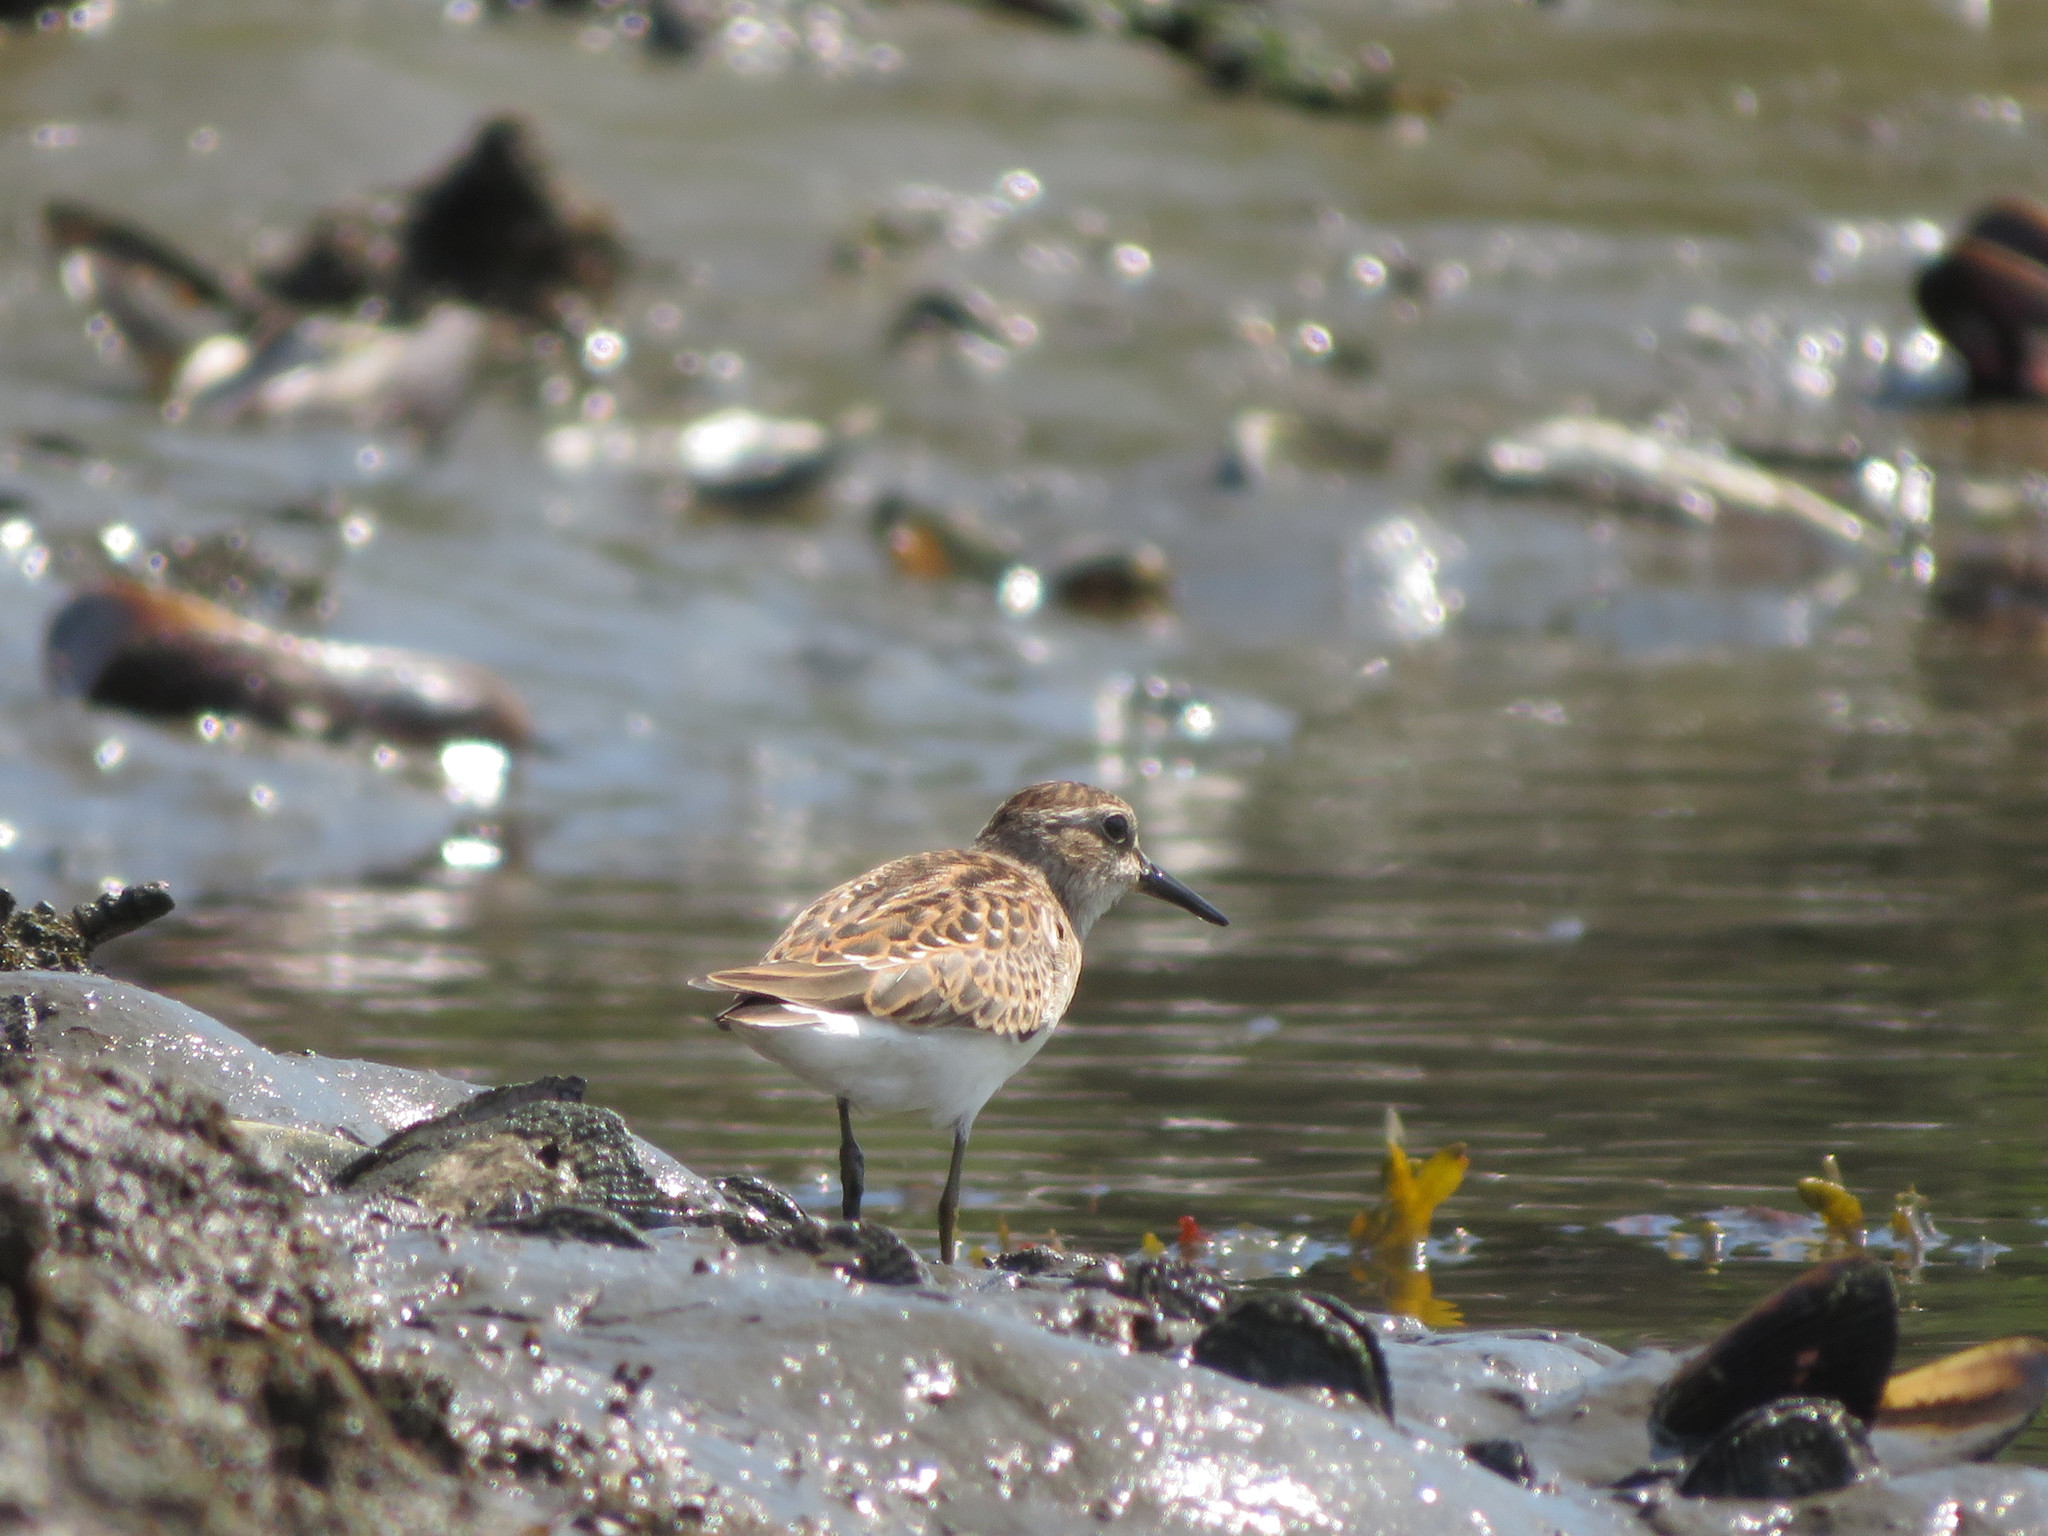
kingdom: Animalia
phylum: Chordata
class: Aves
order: Charadriiformes
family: Scolopacidae
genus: Calidris
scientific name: Calidris minutilla
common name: Least sandpiper
